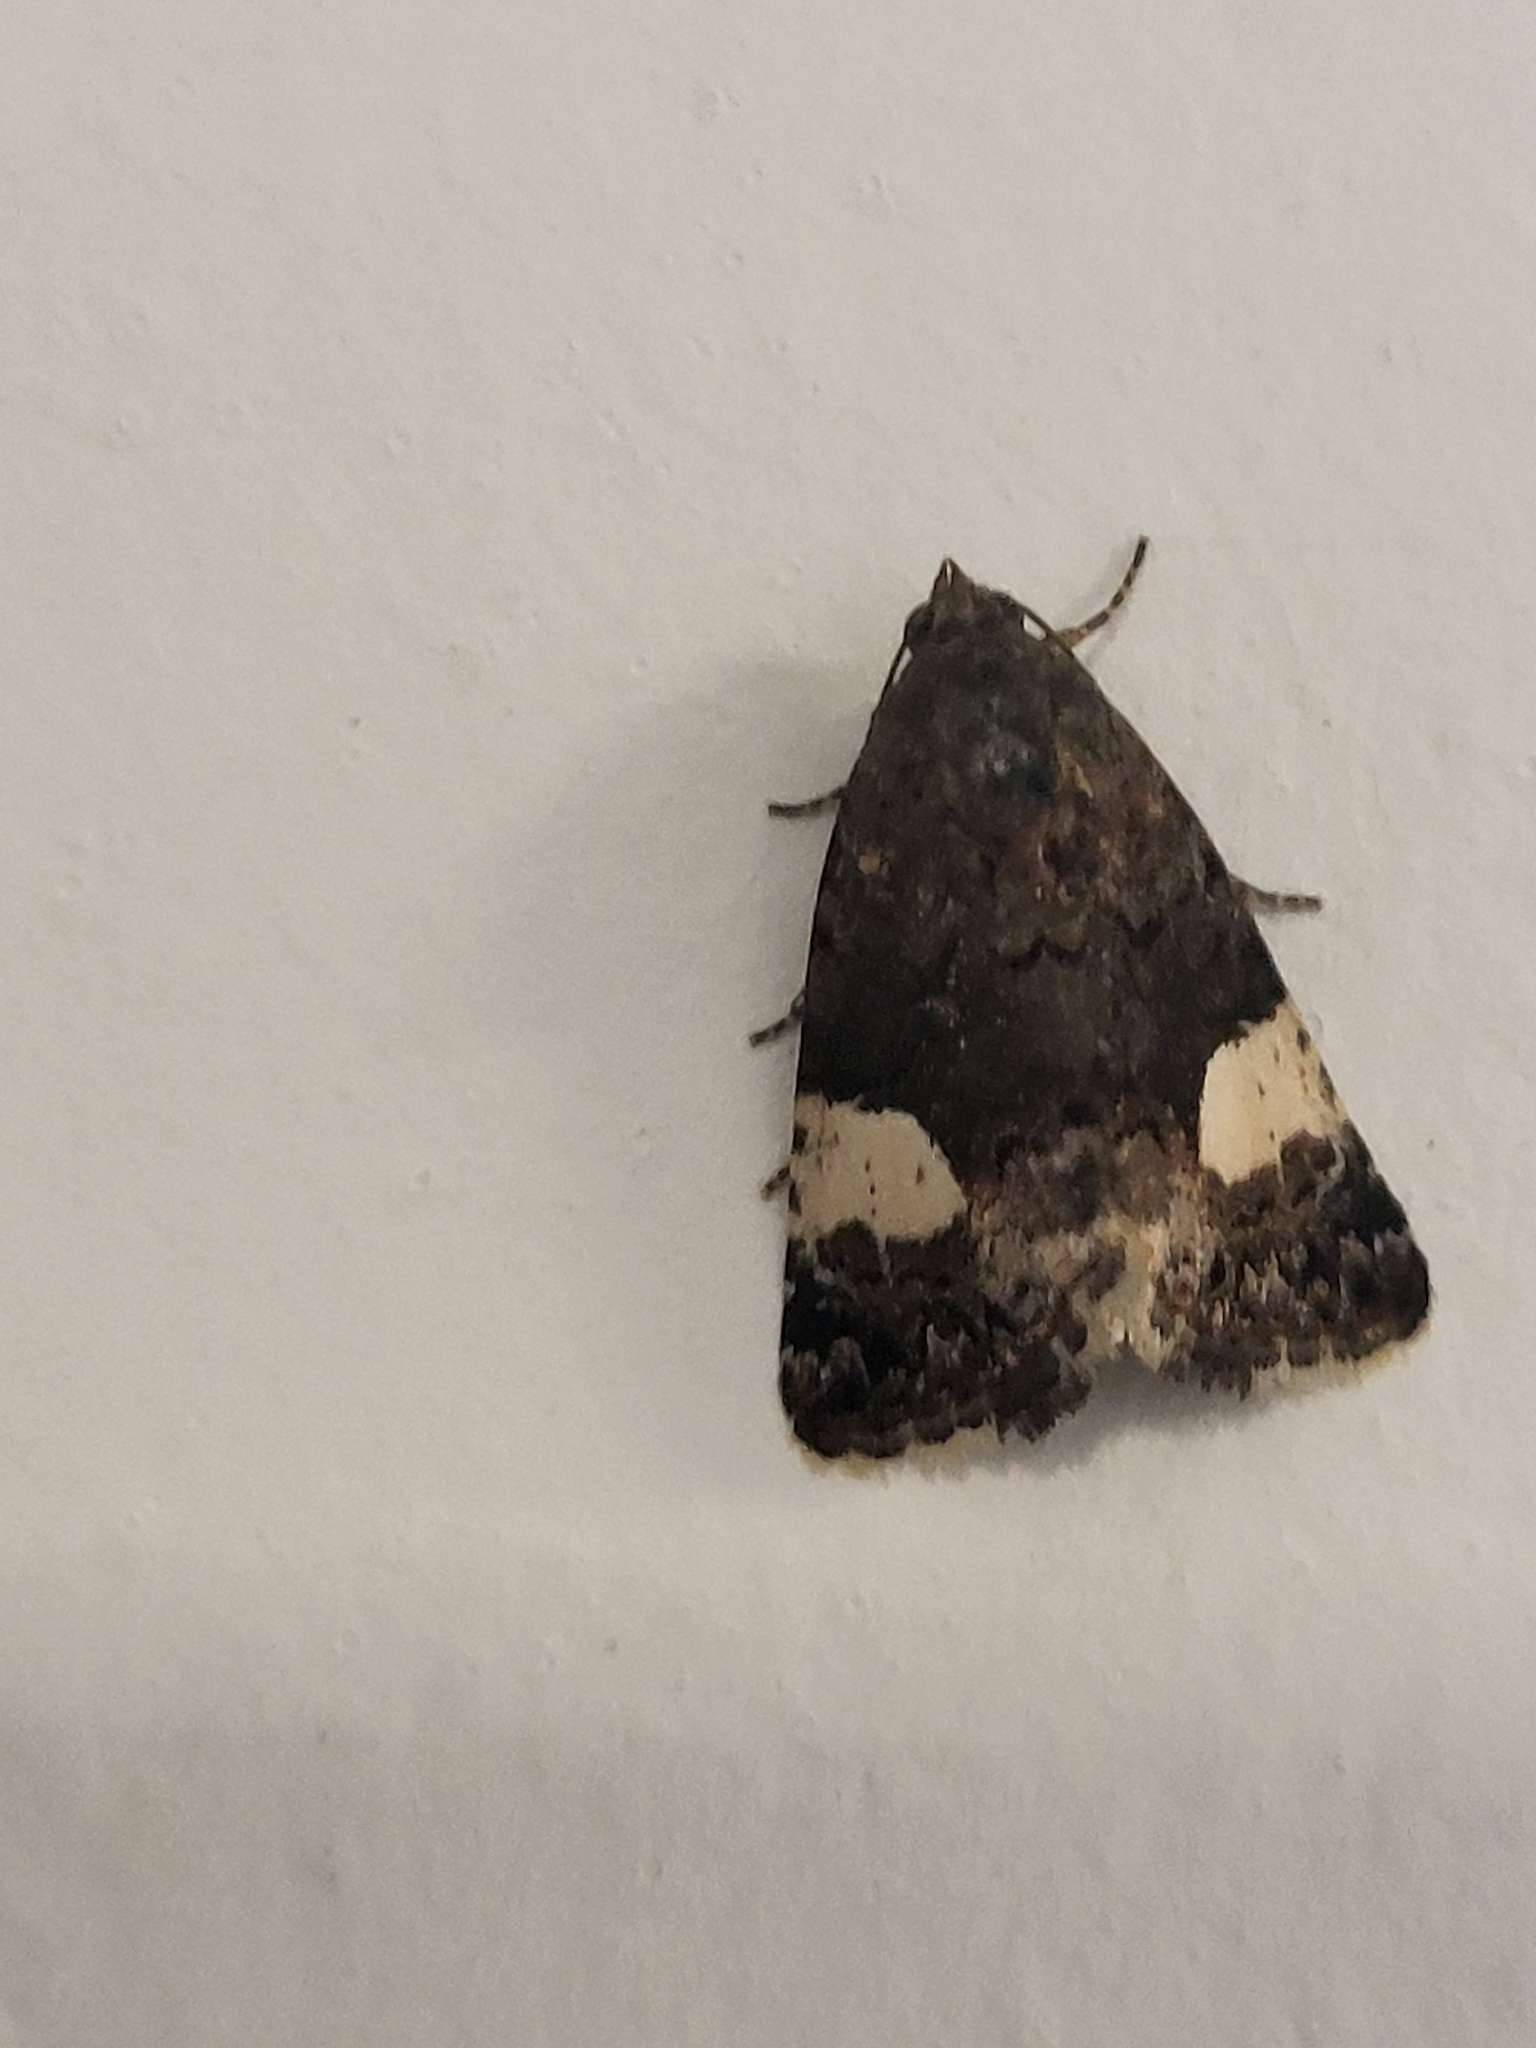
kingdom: Animalia
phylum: Arthropoda
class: Insecta
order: Lepidoptera
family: Erebidae
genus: Tyta
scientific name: Tyta luctuosa
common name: Four-spotted
